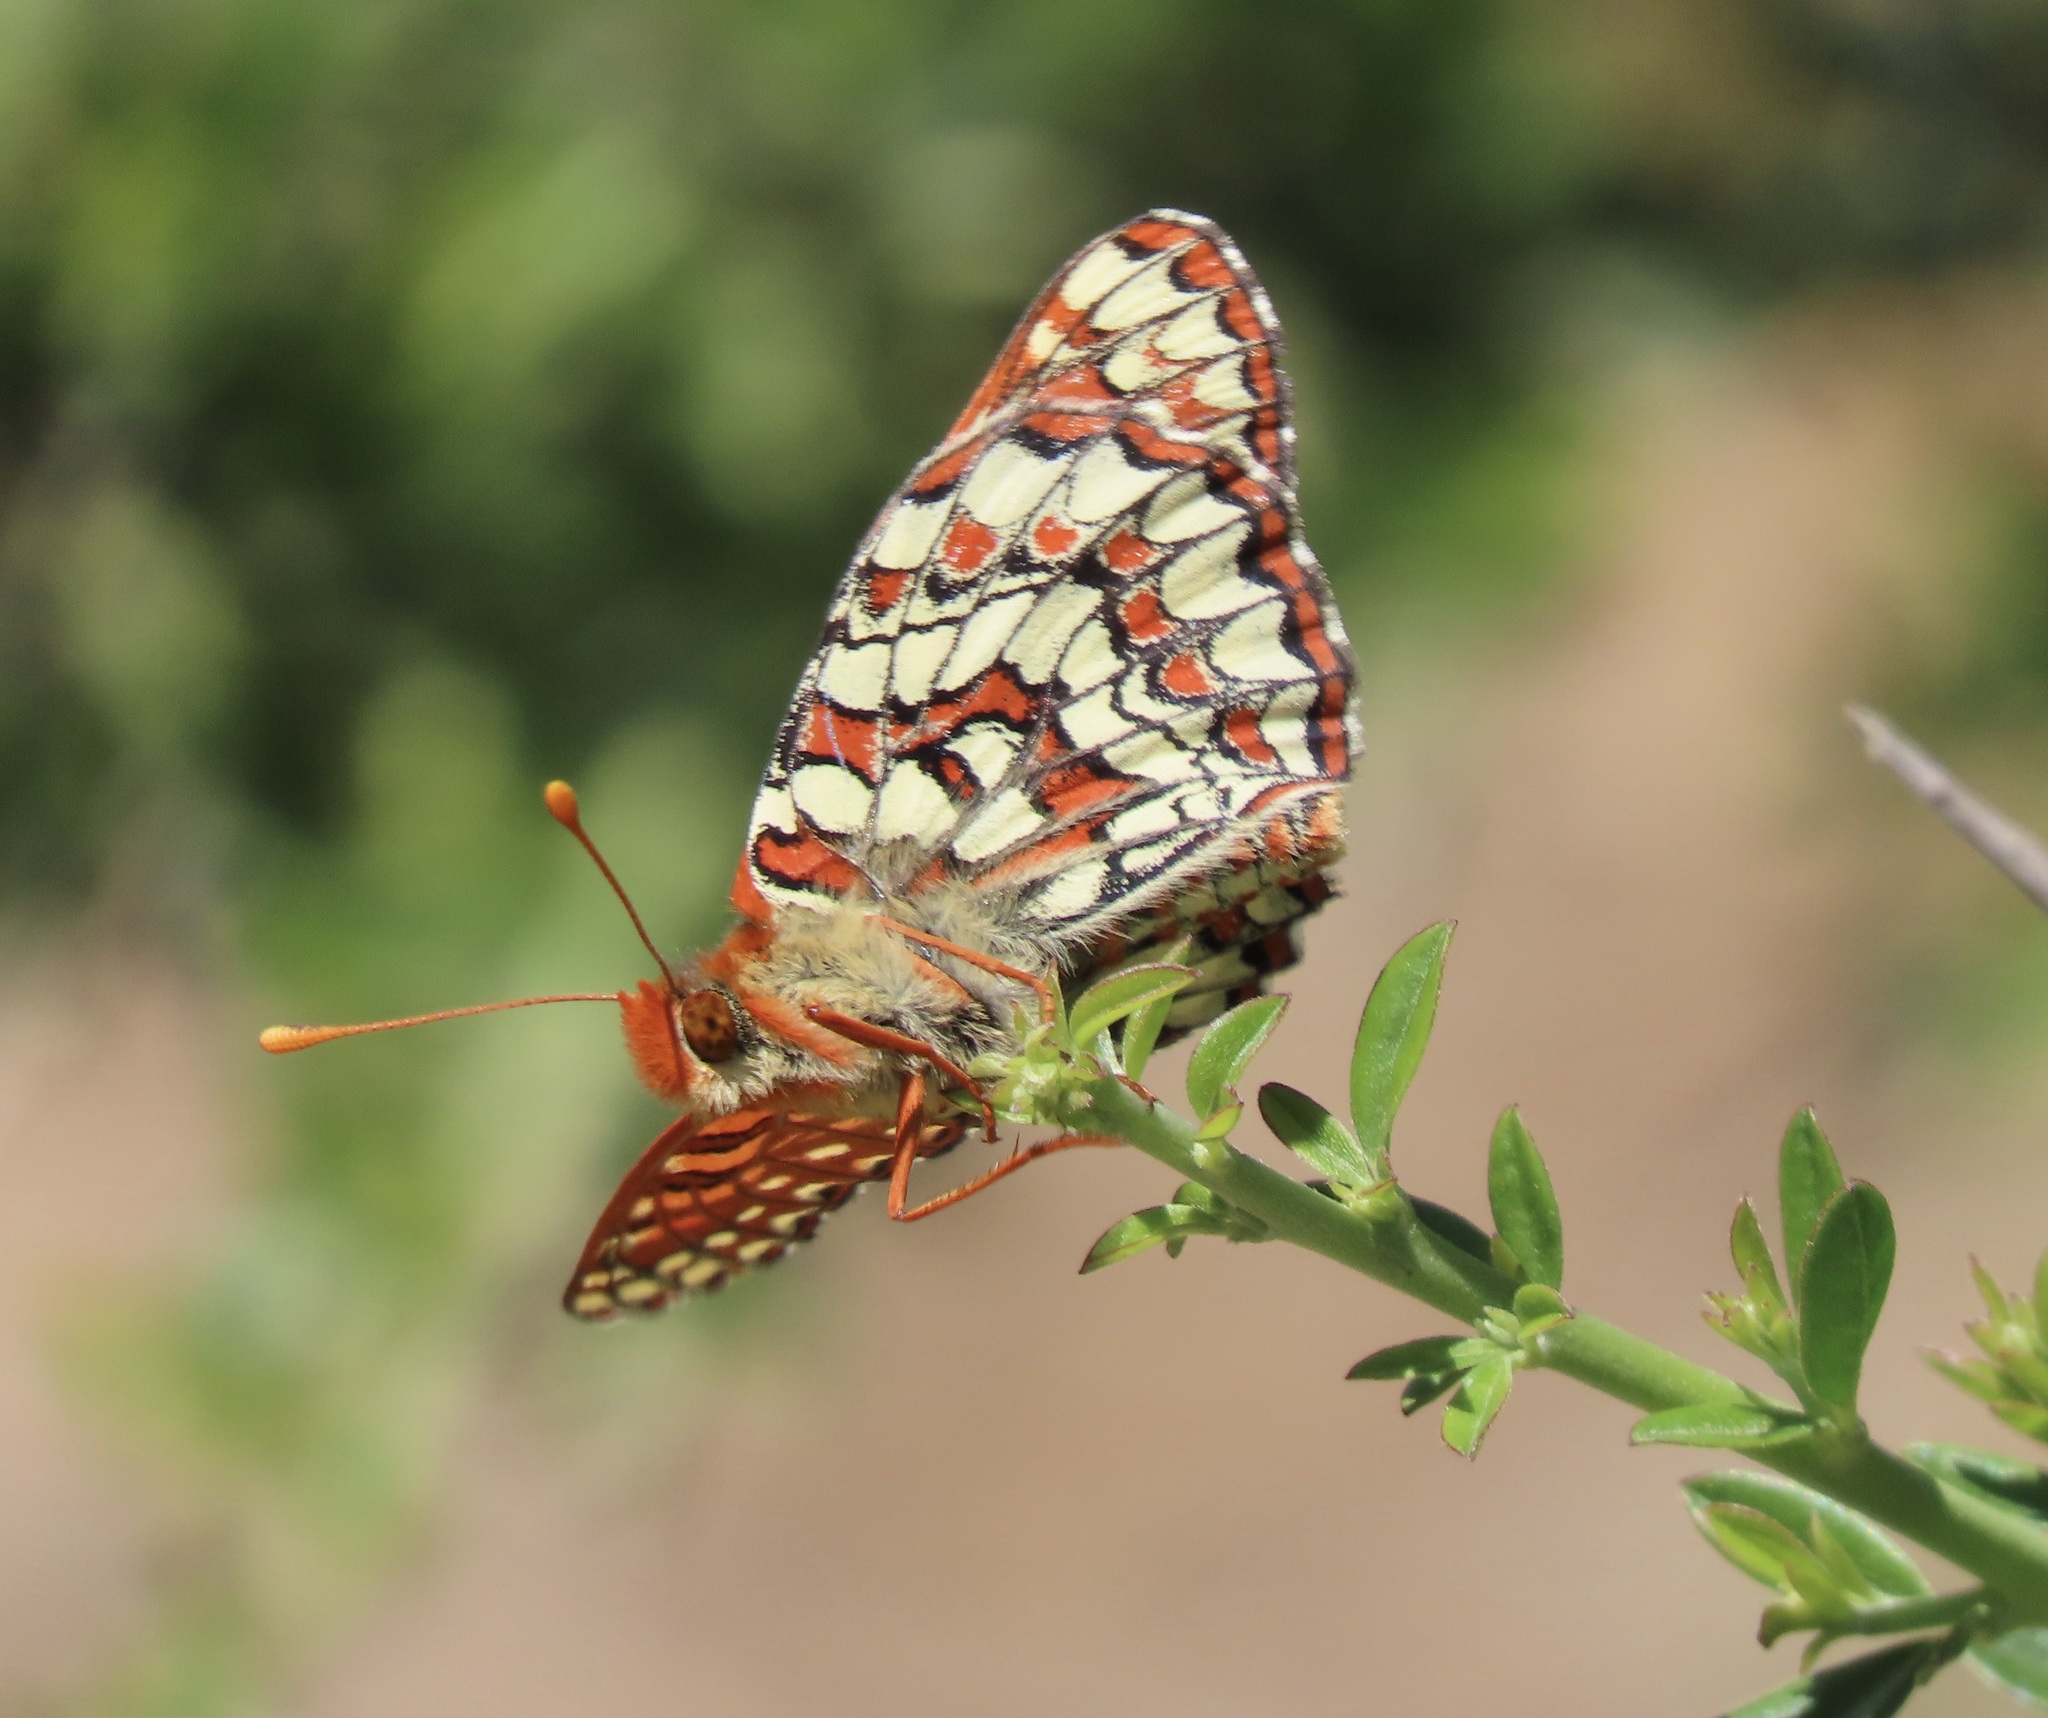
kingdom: Animalia
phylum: Arthropoda
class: Insecta
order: Lepidoptera
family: Nymphalidae
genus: Occidryas
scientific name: Occidryas chalcedona
